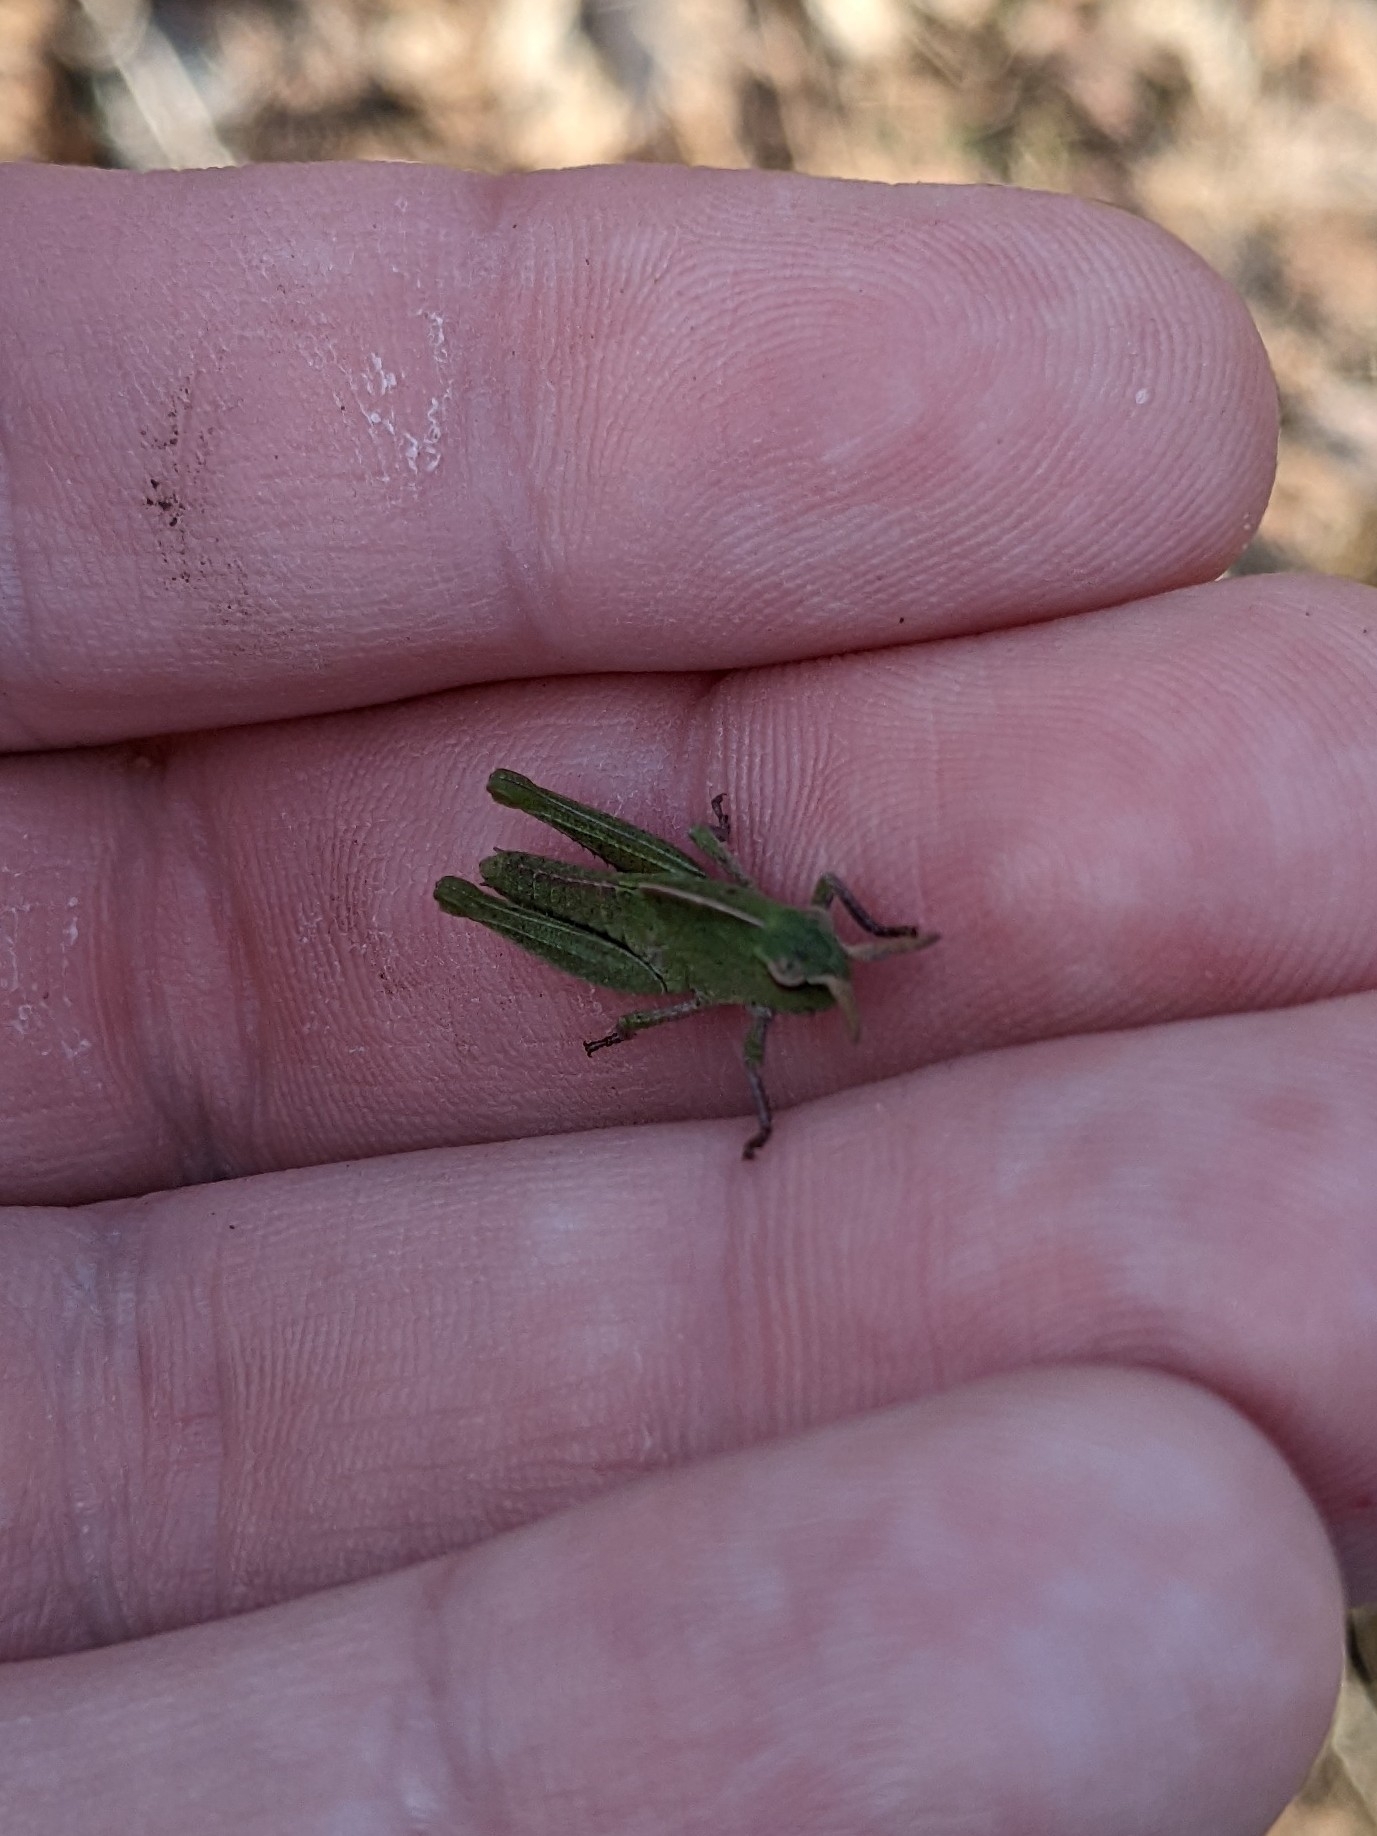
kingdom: Animalia
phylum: Arthropoda
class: Insecta
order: Orthoptera
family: Acrididae
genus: Chortophaga
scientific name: Chortophaga viridifasciata
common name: Green-striped grasshopper
